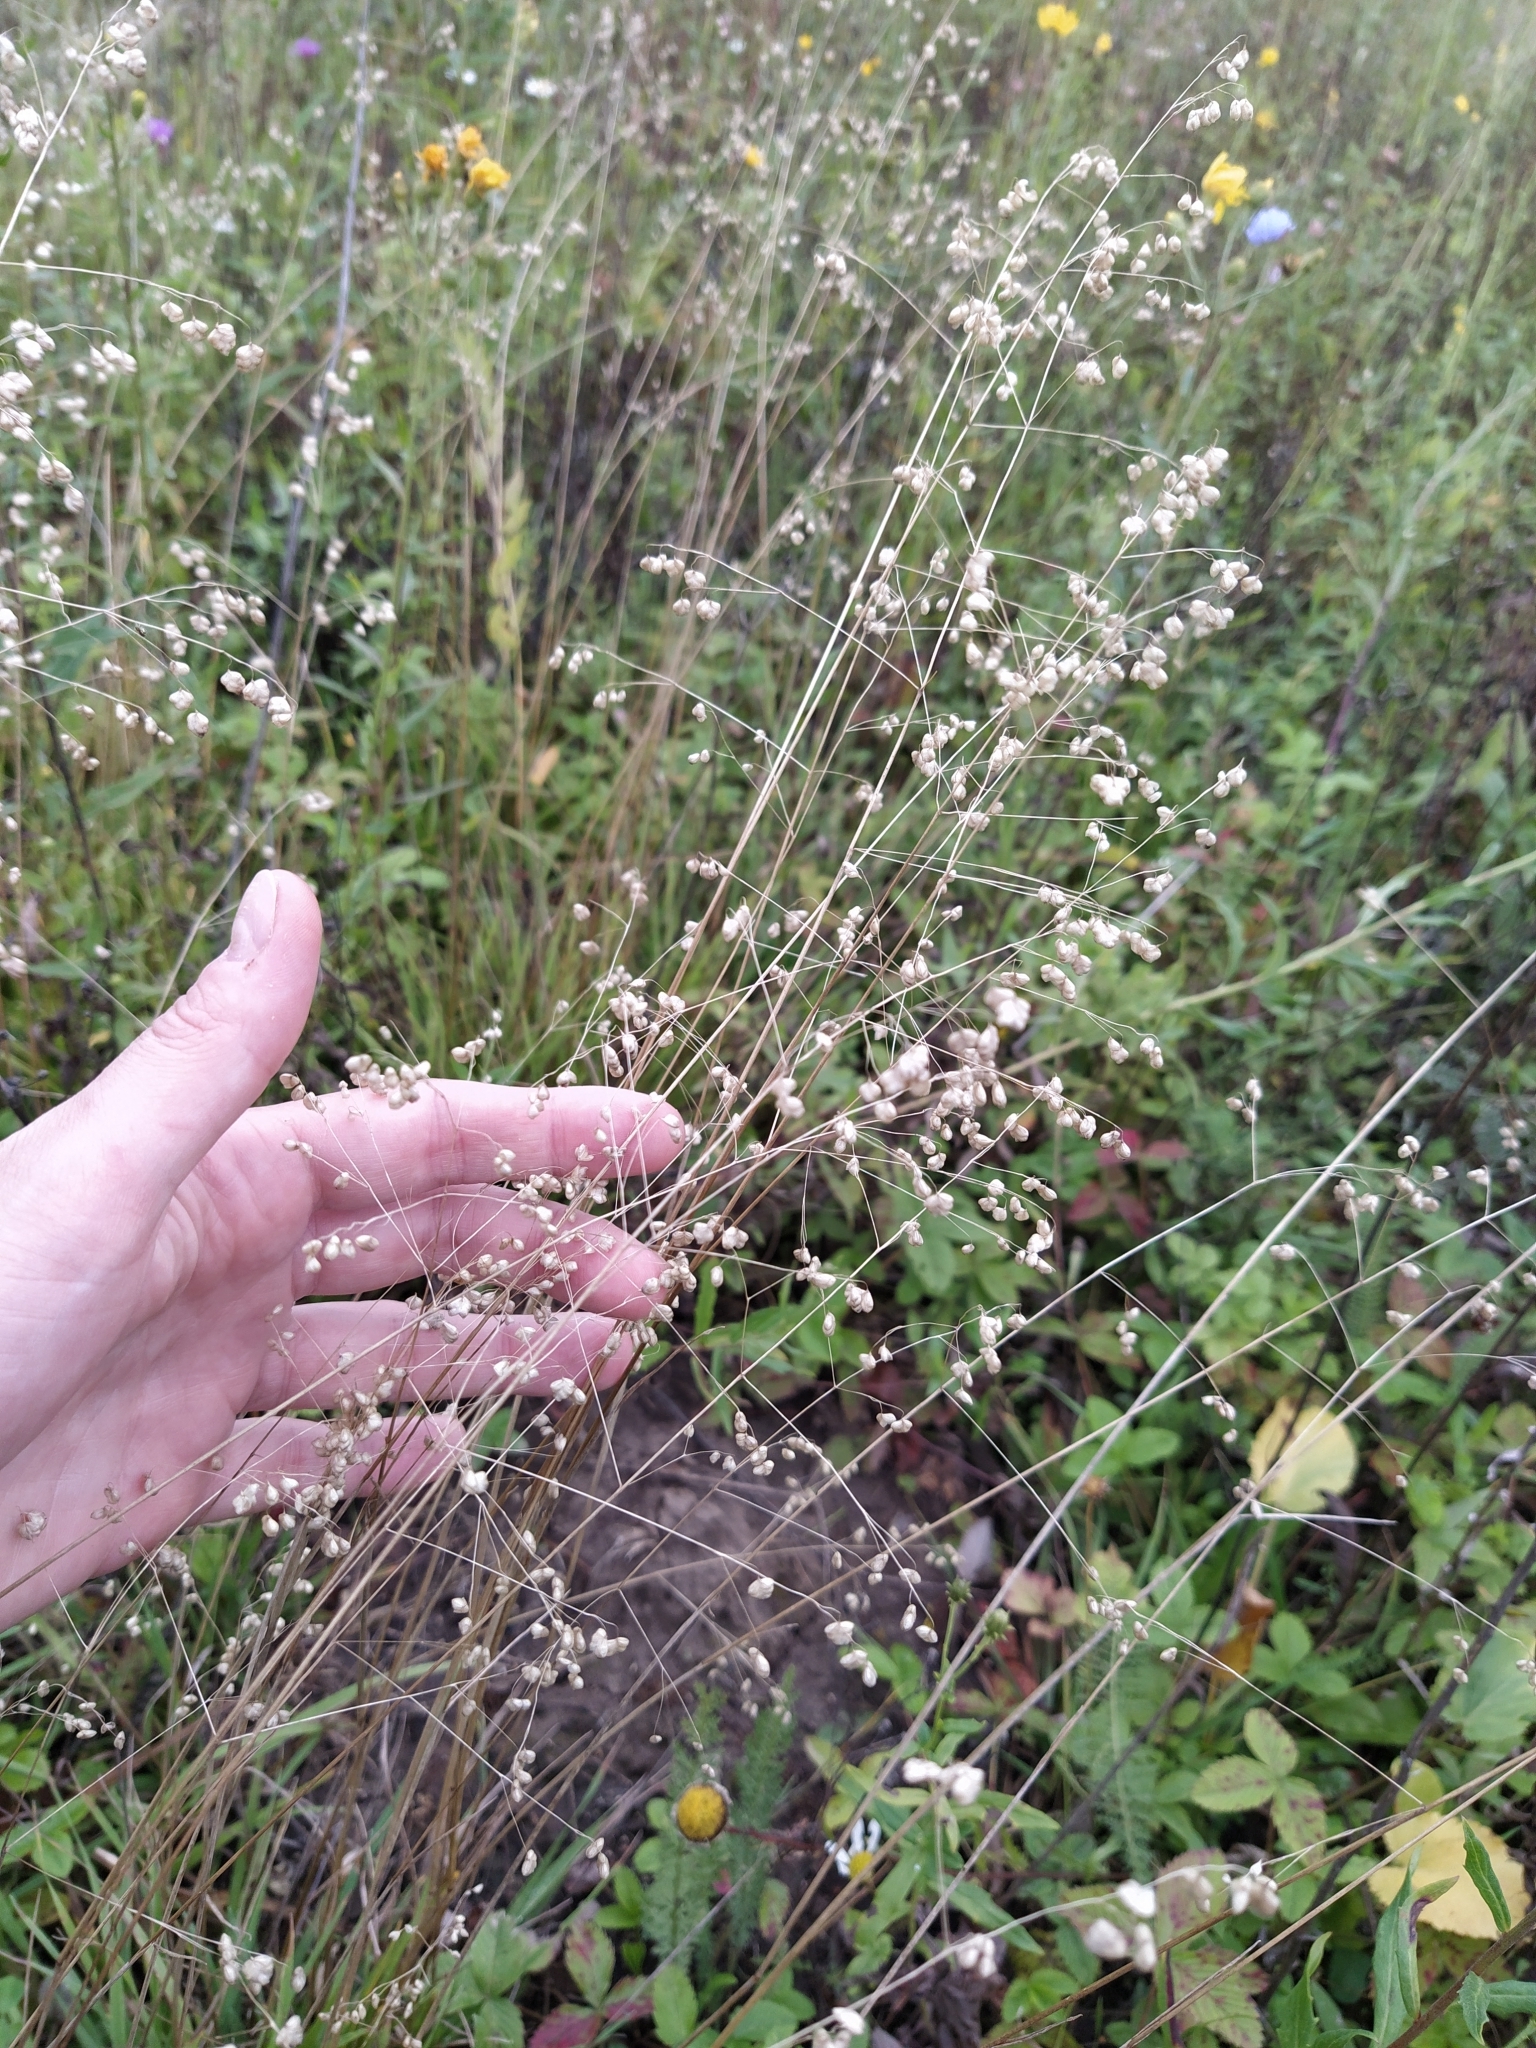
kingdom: Plantae
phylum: Tracheophyta
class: Liliopsida
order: Poales
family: Poaceae
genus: Briza
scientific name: Briza media
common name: Quaking grass
